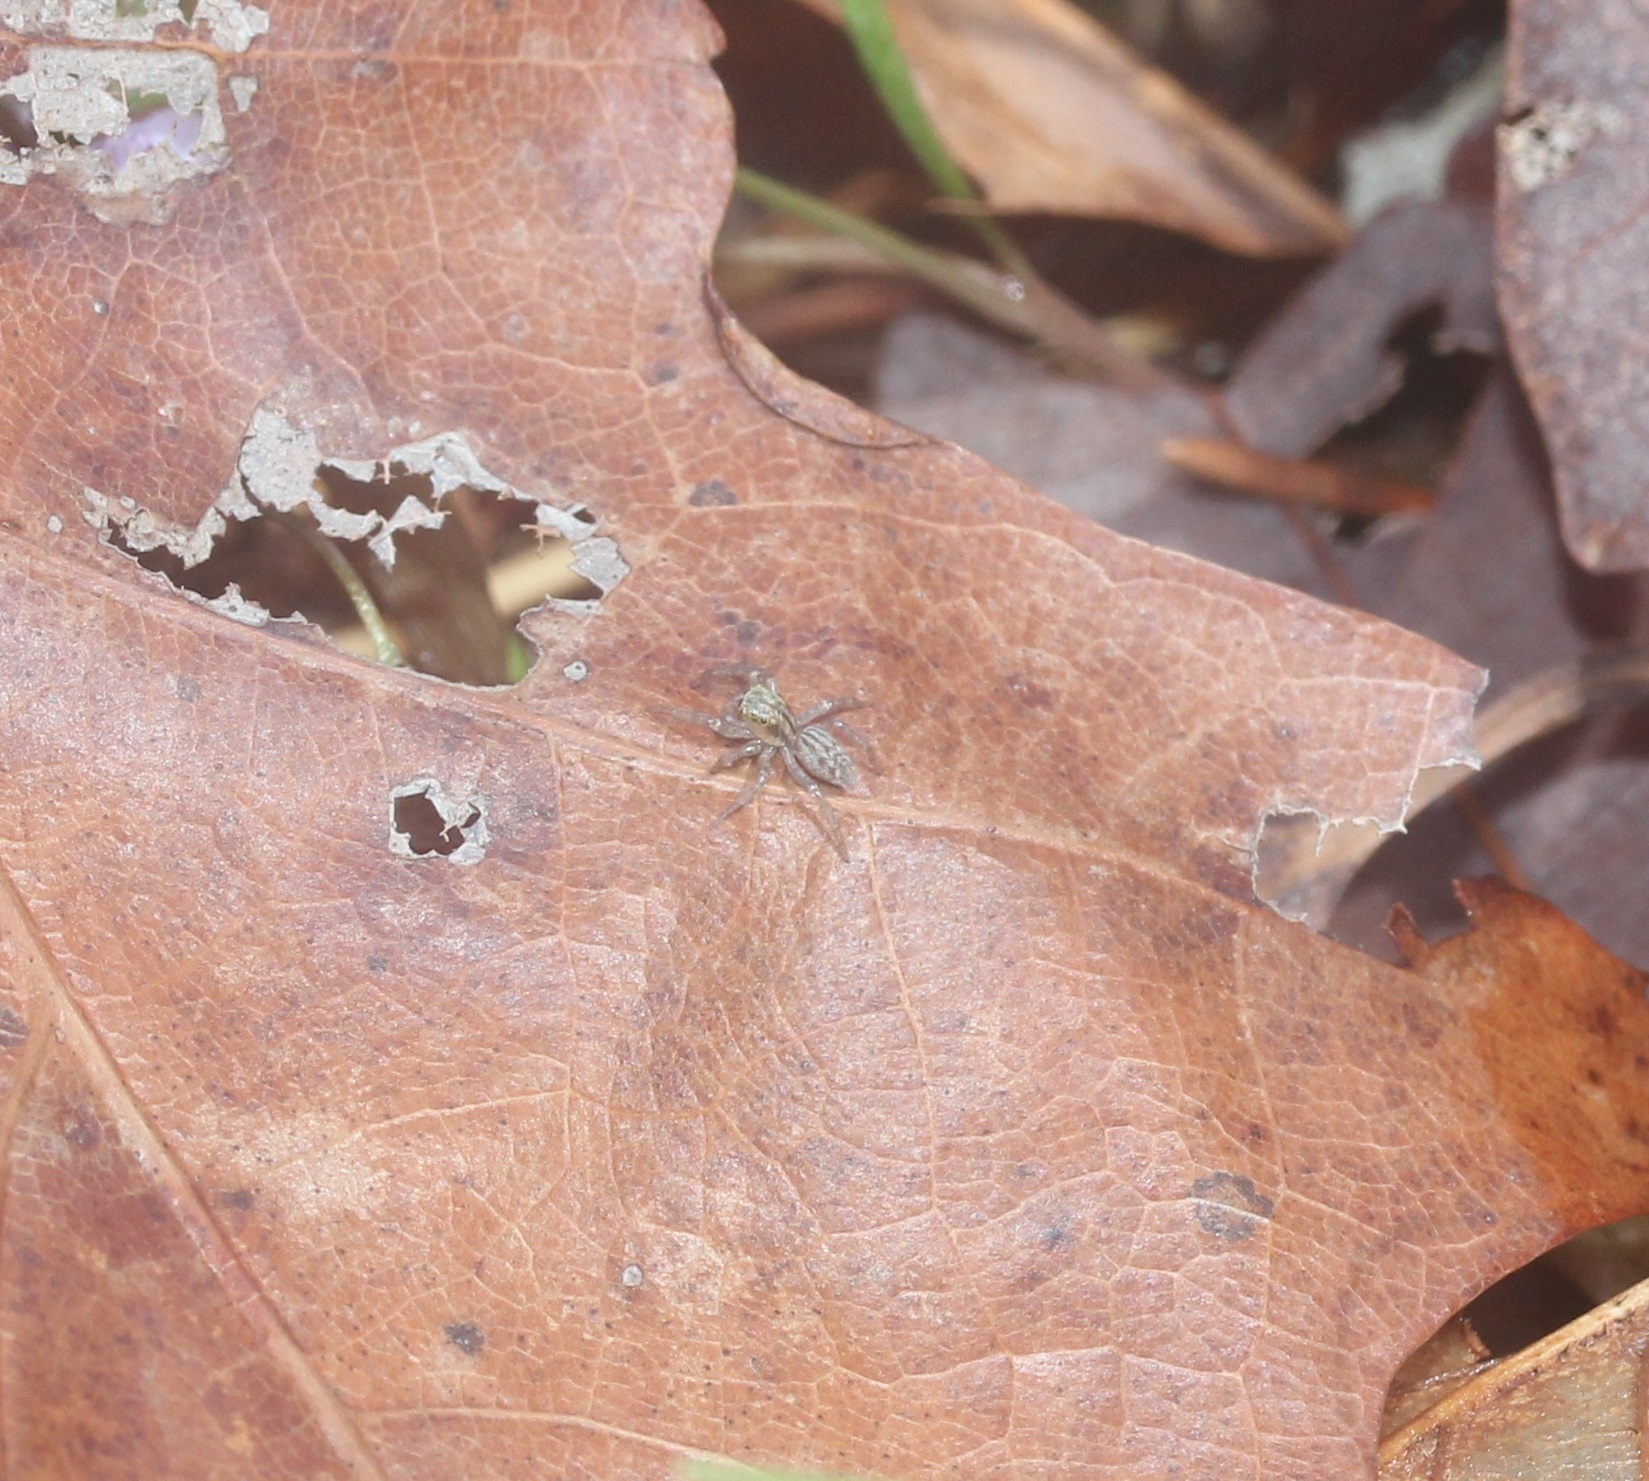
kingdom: Animalia
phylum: Arthropoda
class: Arachnida
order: Araneae
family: Salticidae
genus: Maevia
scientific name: Maevia inclemens
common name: Dimorphic jumper
